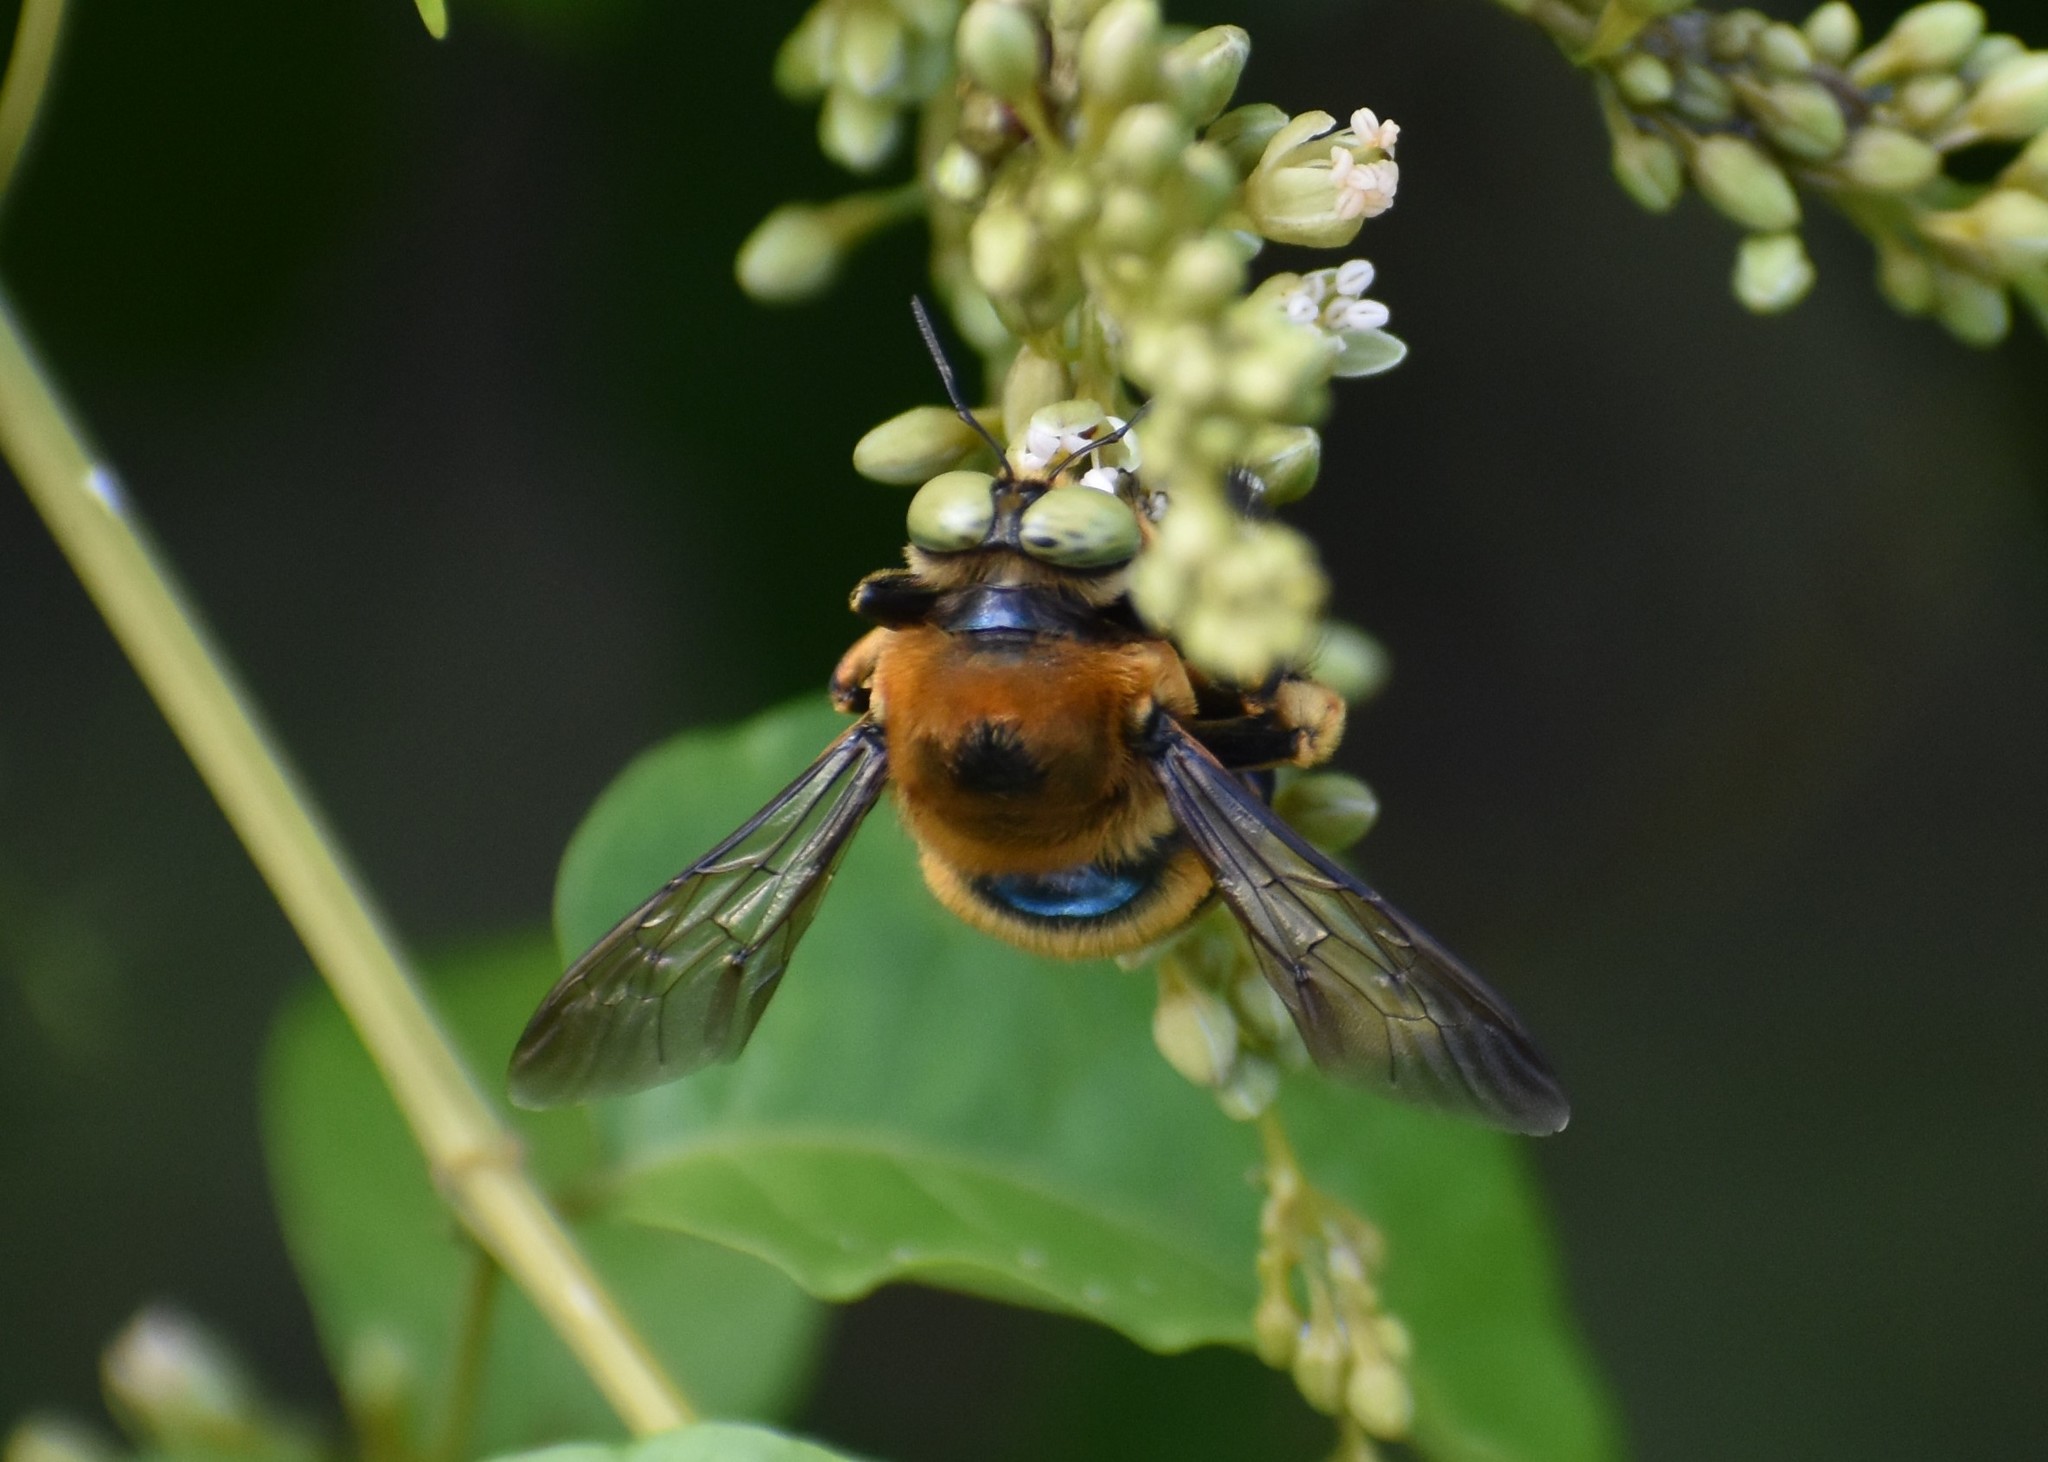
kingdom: Animalia
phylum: Arthropoda
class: Insecta
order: Hymenoptera
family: Apidae
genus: Xylocopa
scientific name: Xylocopa micans
